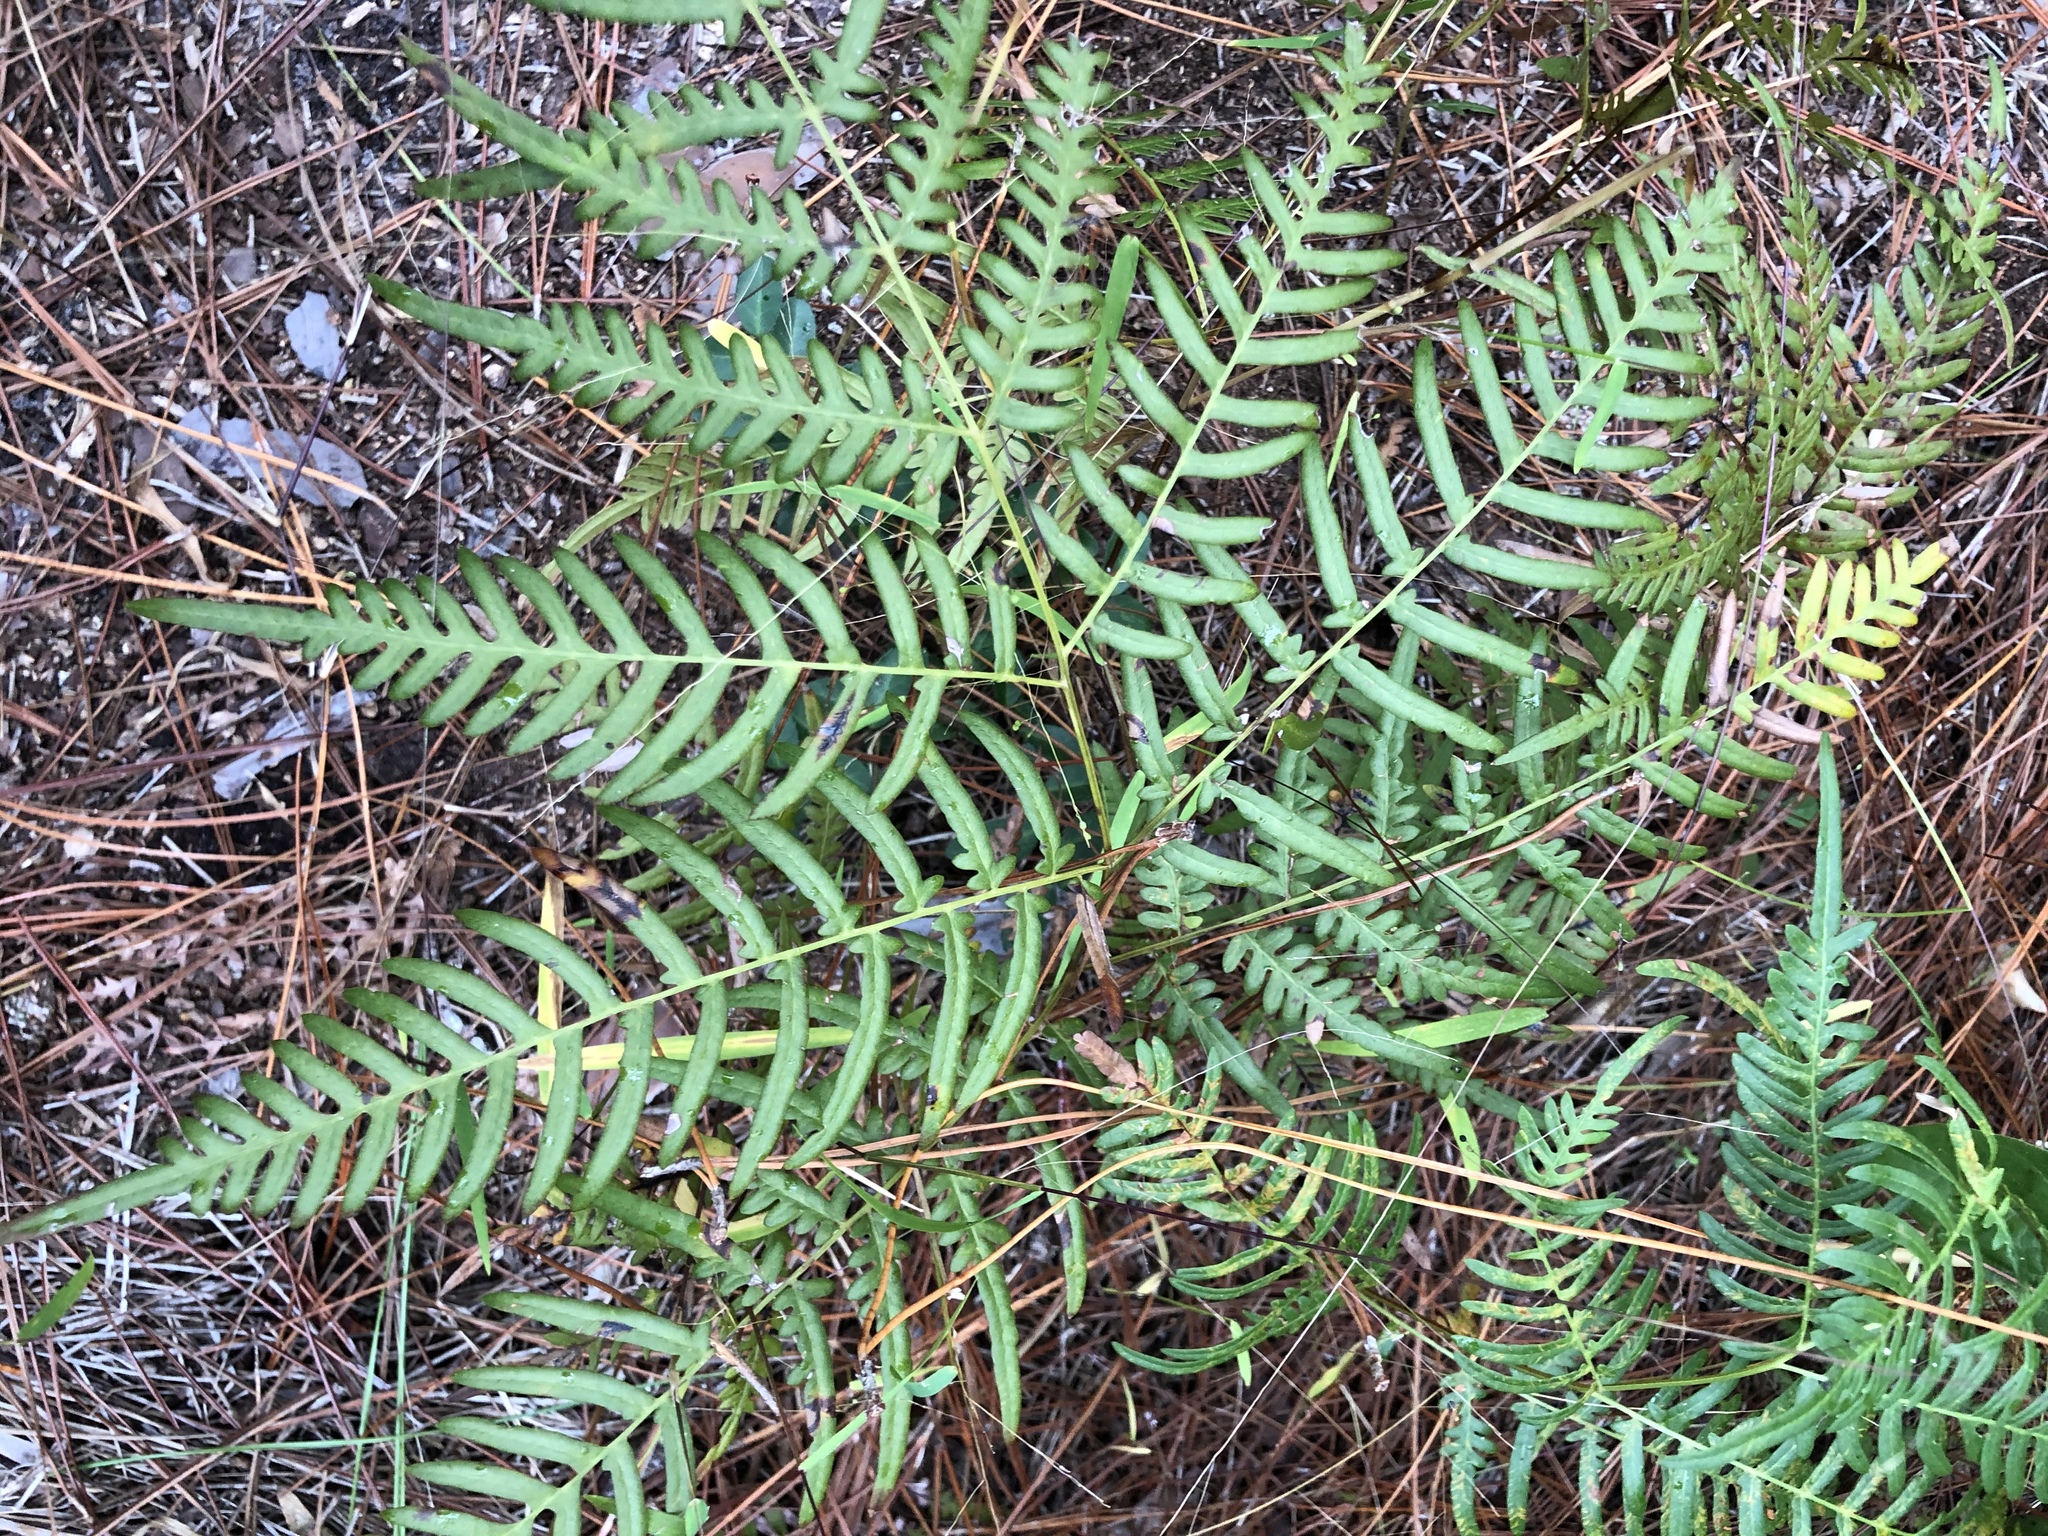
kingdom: Plantae
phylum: Tracheophyta
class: Polypodiopsida
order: Polypodiales
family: Dennstaedtiaceae
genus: Pteridium
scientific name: Pteridium
